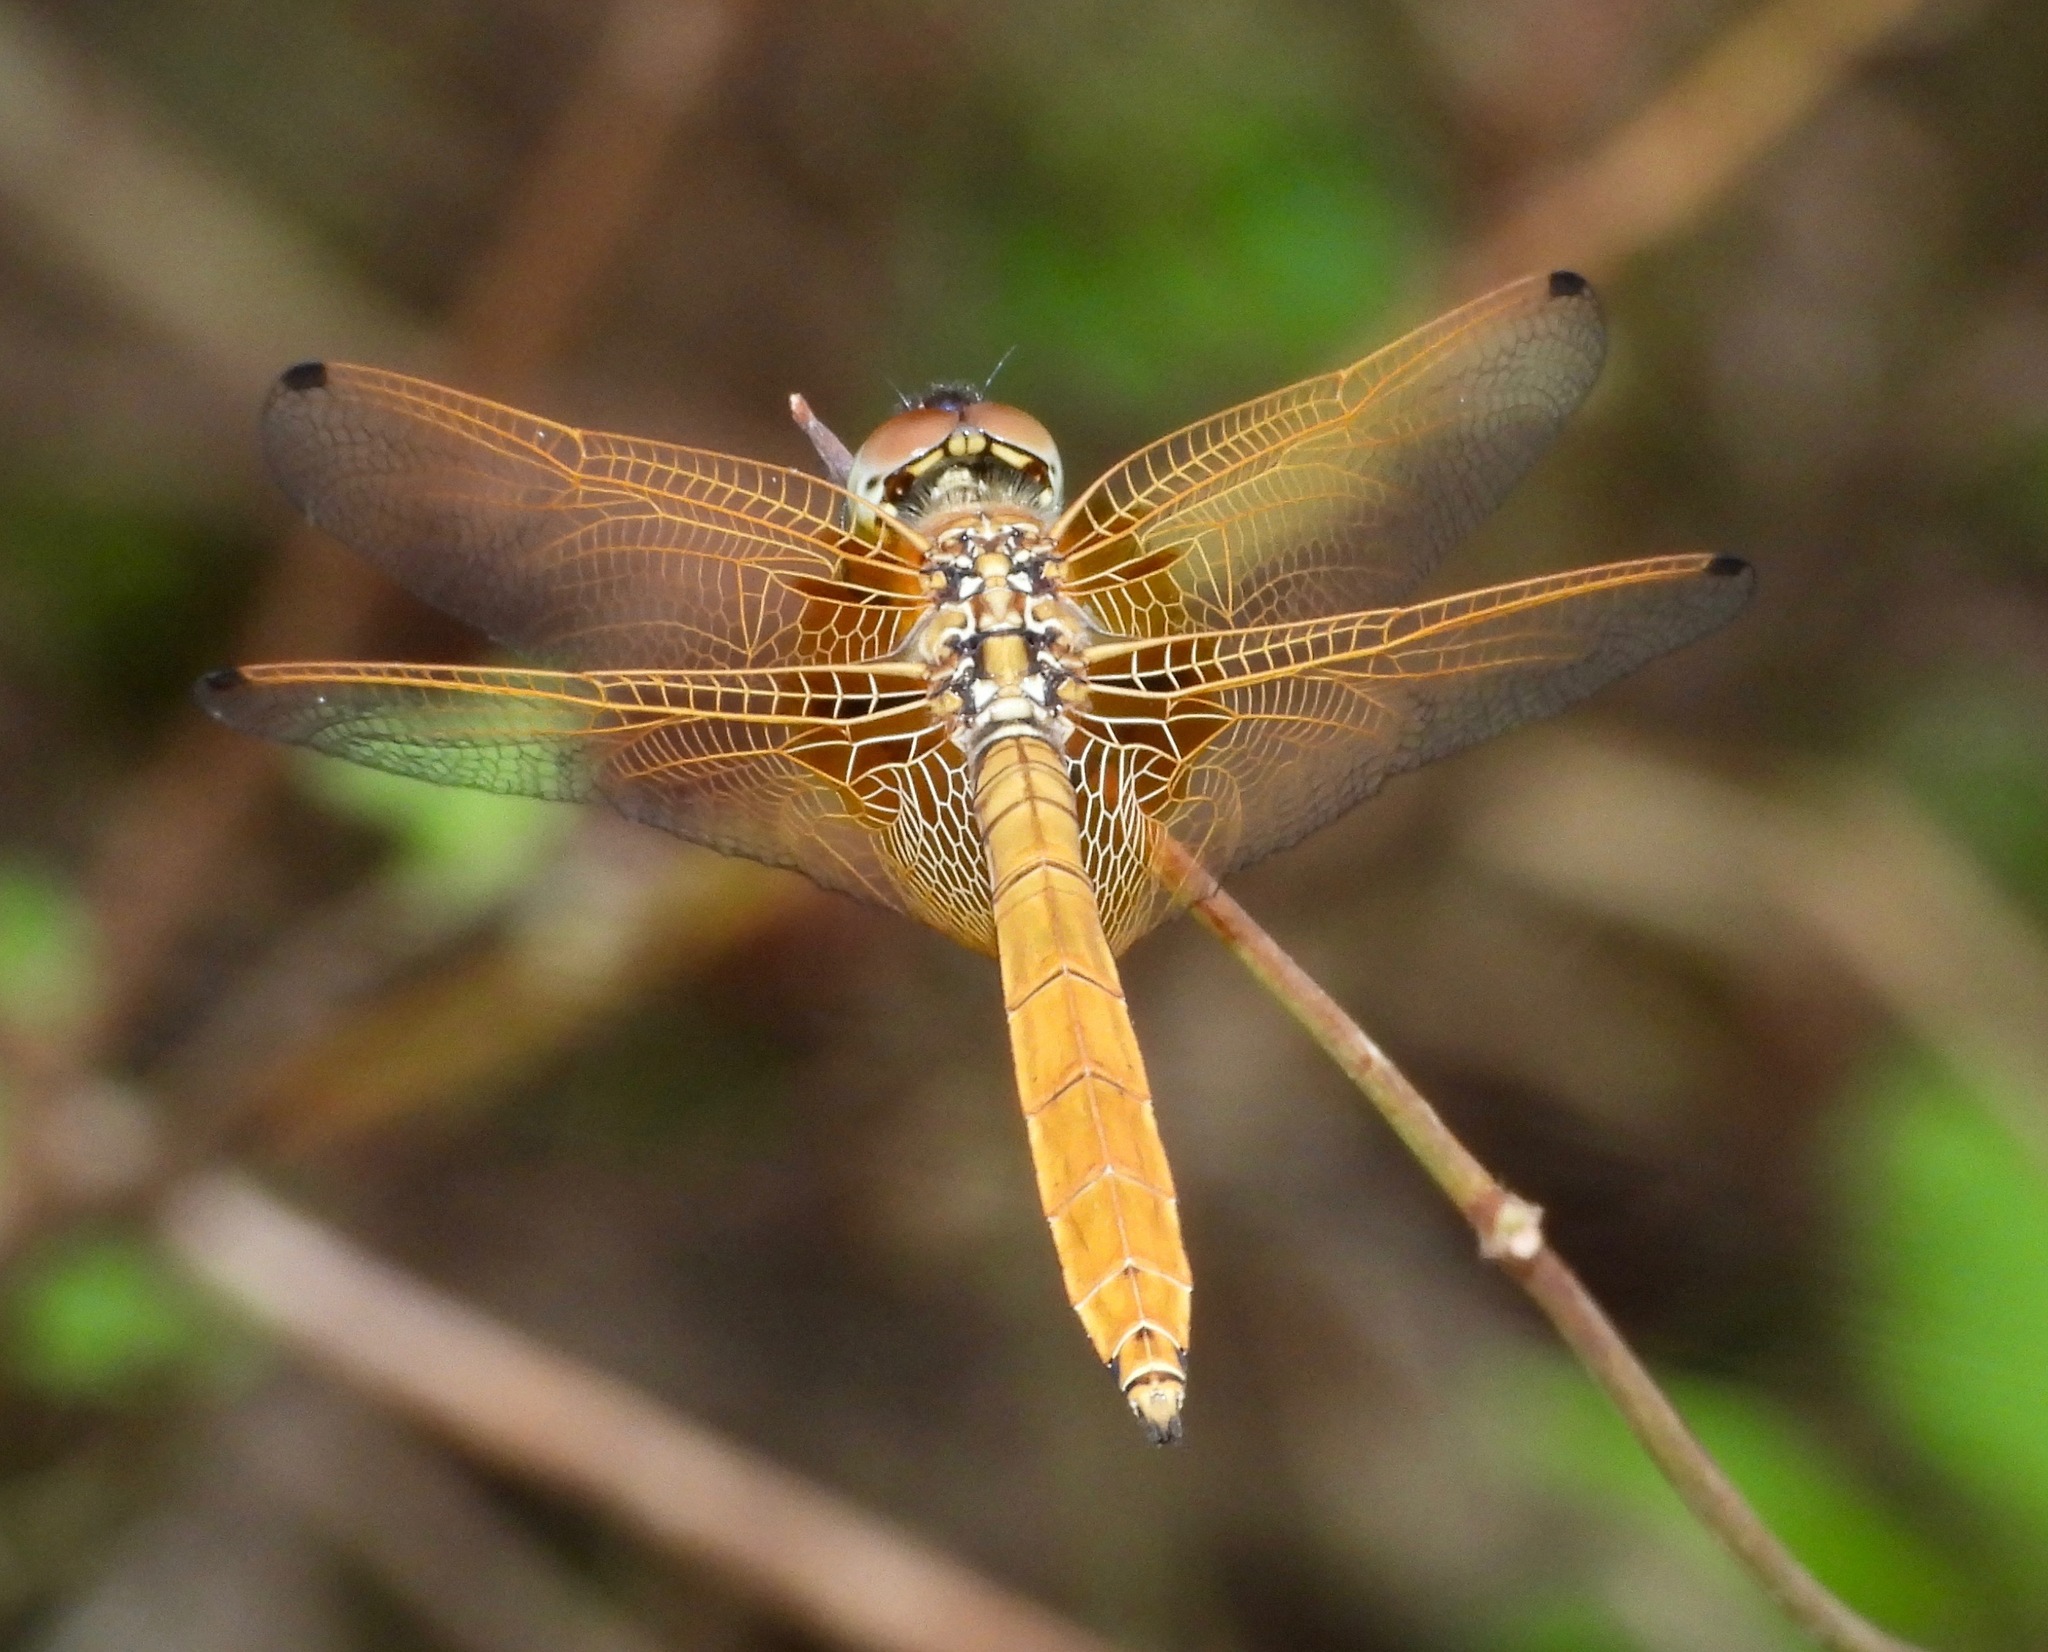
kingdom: Animalia
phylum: Arthropoda
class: Insecta
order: Odonata
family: Libellulidae
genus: Trithemis
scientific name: Trithemis aurora
